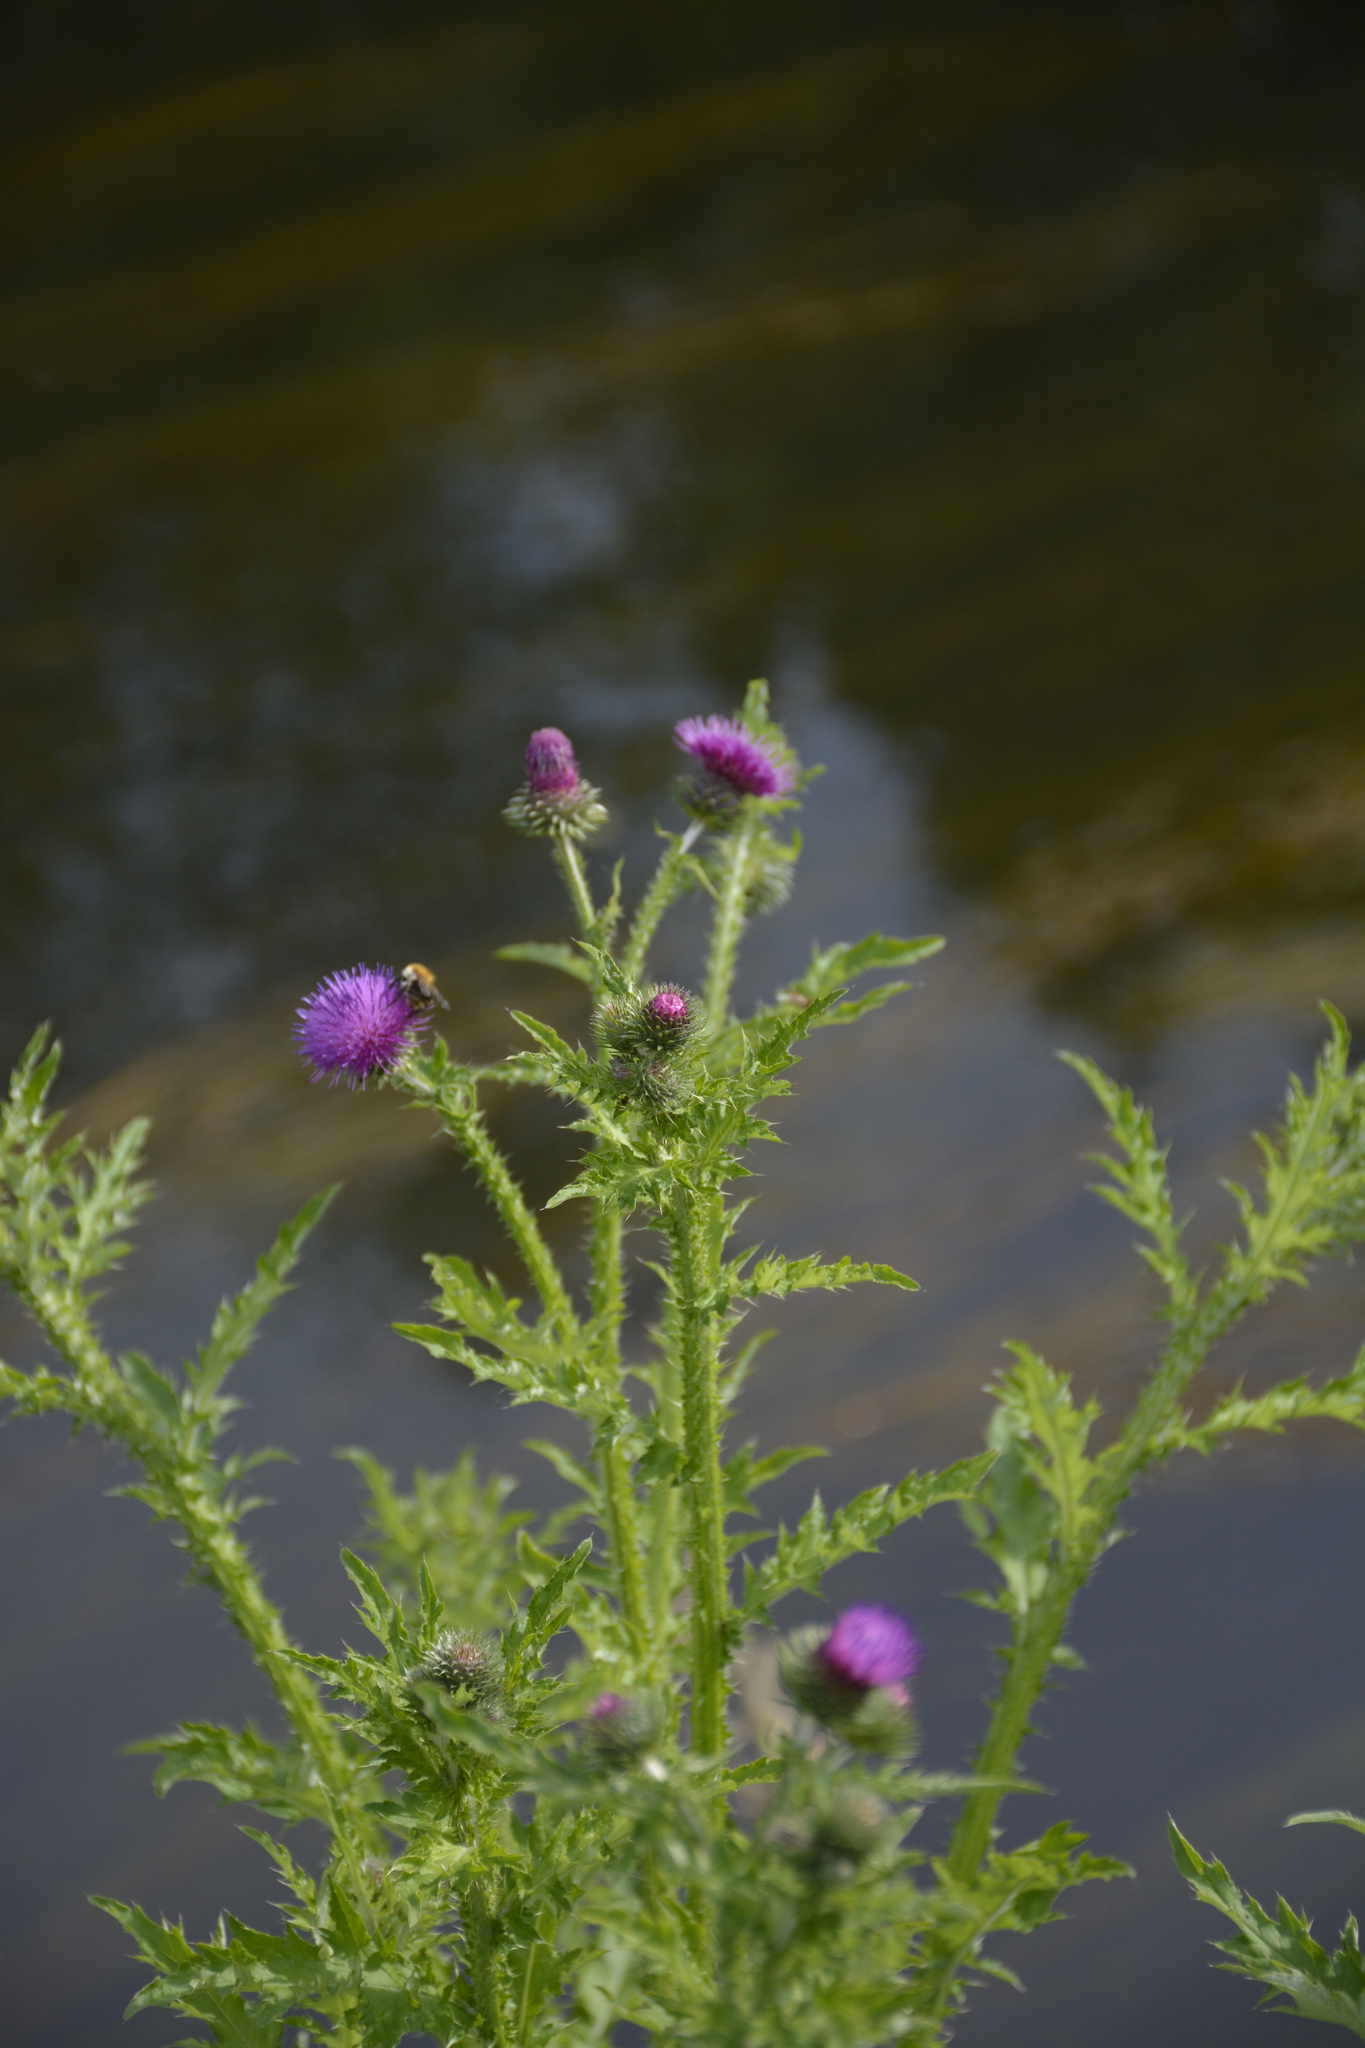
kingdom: Plantae
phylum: Tracheophyta
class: Magnoliopsida
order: Asterales
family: Asteraceae
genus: Carduus
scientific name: Carduus crispus
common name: Welted thistle
